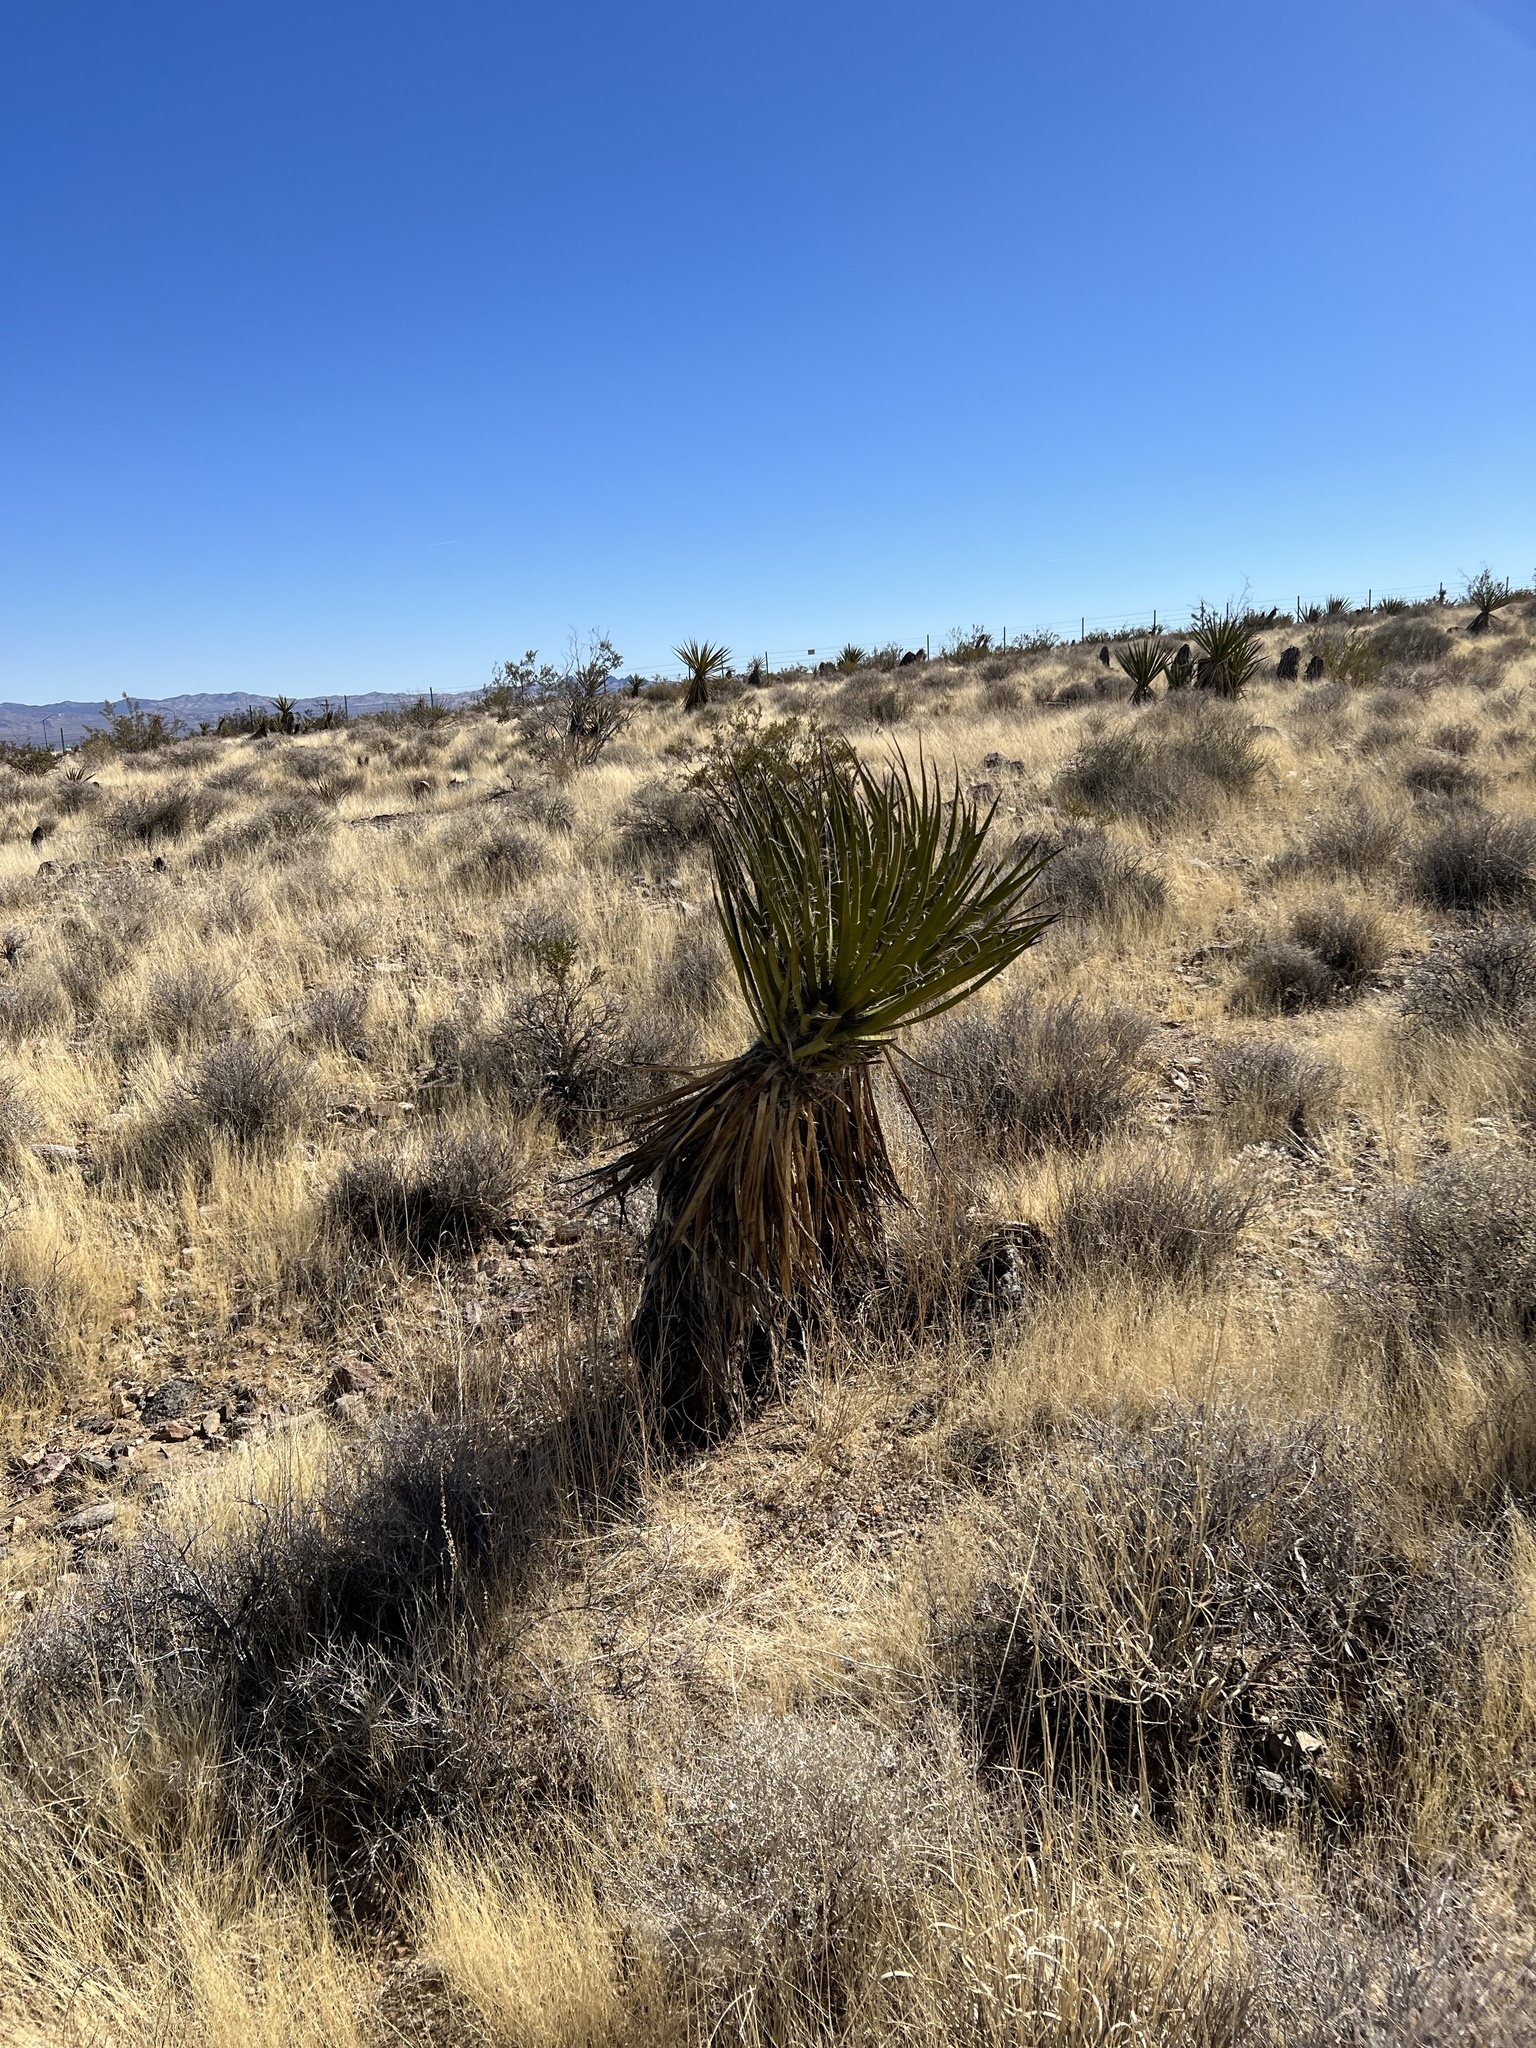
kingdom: Plantae
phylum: Tracheophyta
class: Liliopsida
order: Asparagales
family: Asparagaceae
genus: Yucca
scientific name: Yucca schidigera
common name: Mojave yucca
